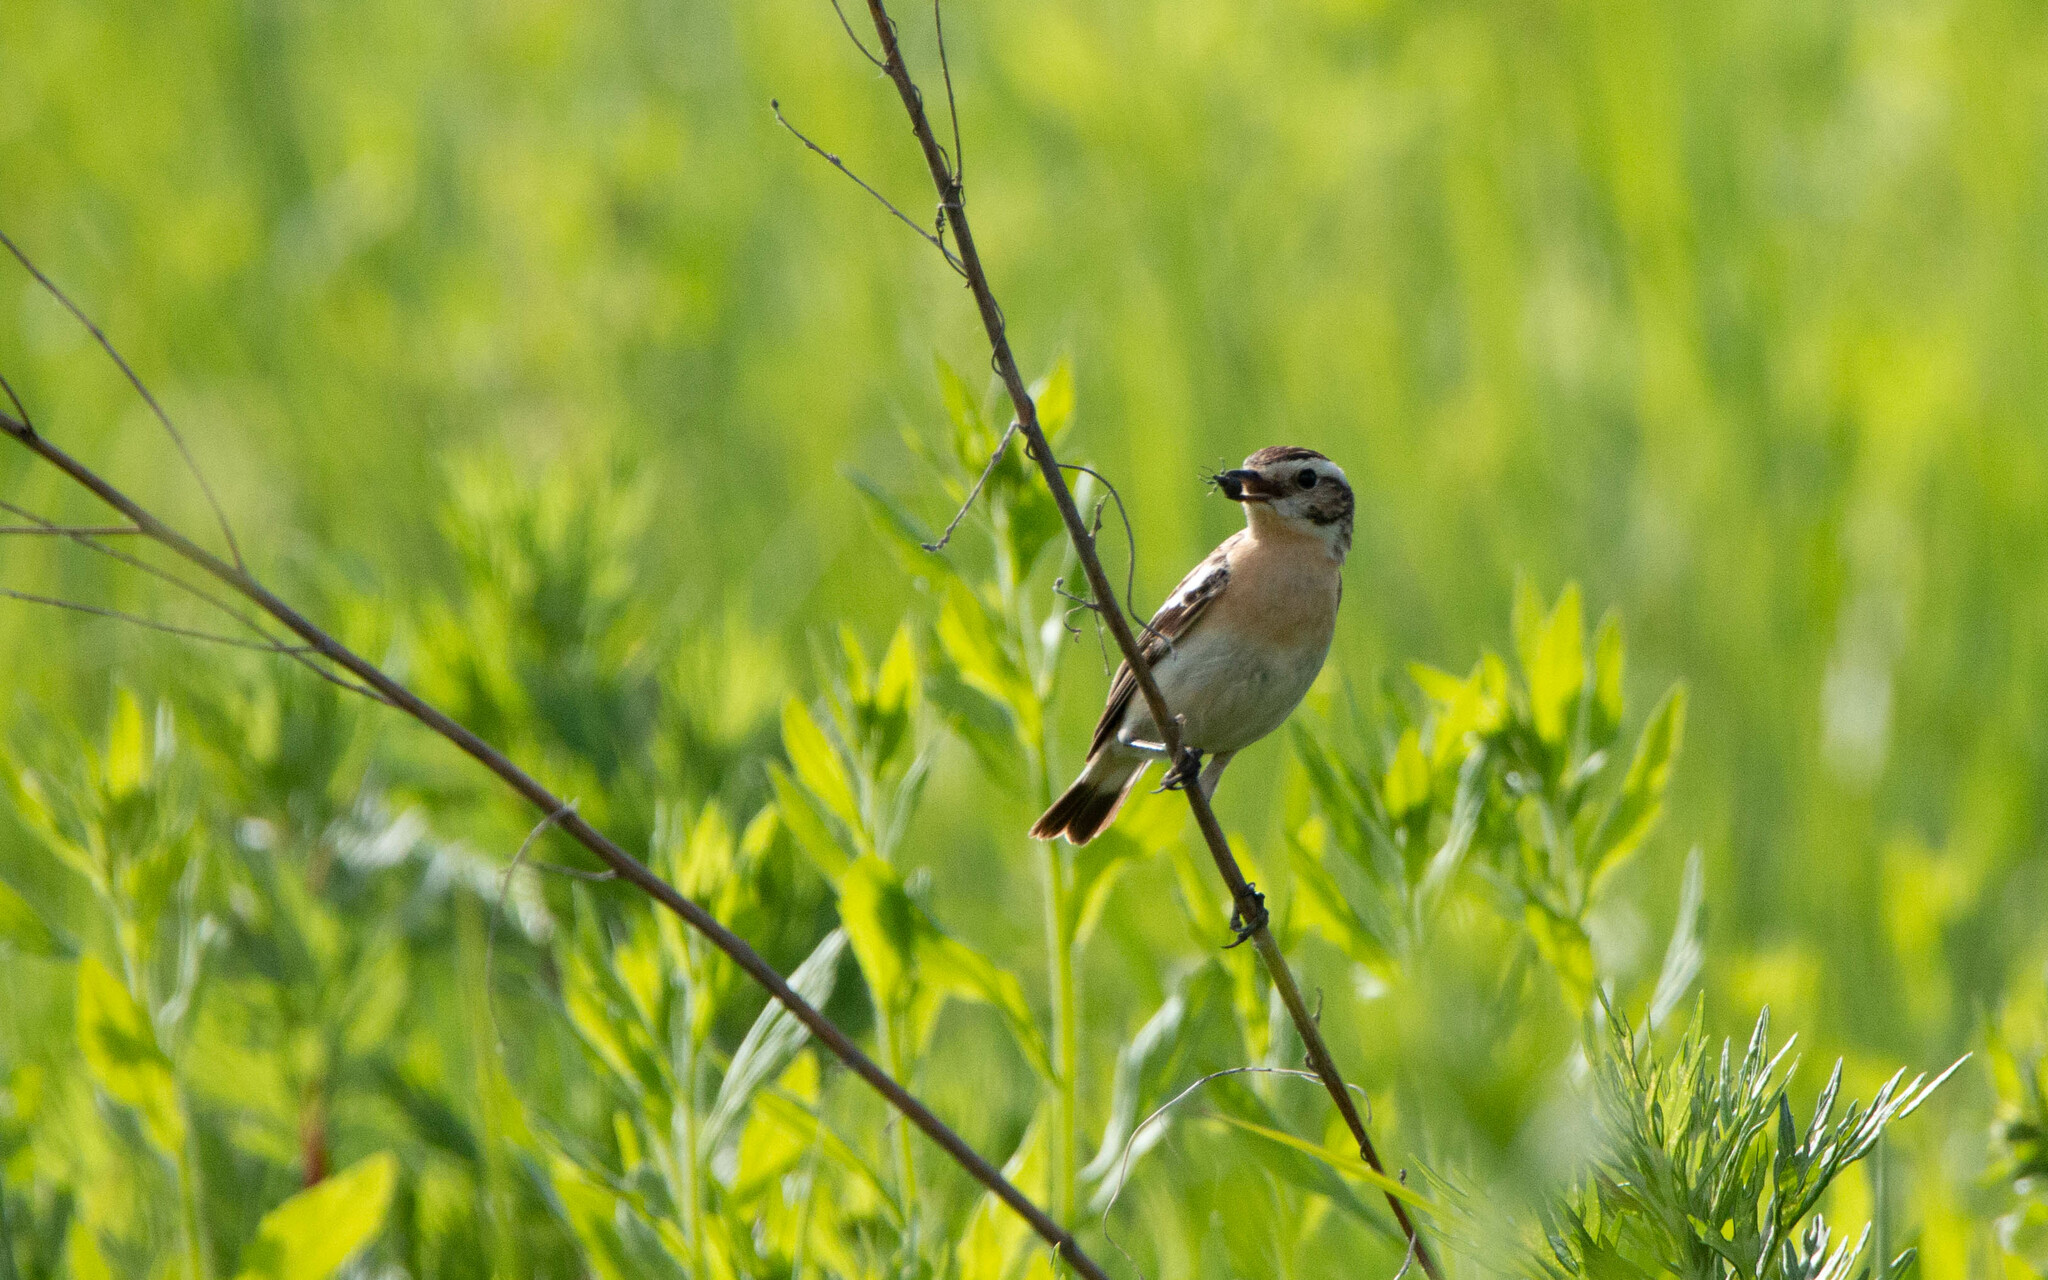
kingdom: Animalia
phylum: Chordata
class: Aves
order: Passeriformes
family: Muscicapidae
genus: Saxicola
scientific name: Saxicola rubetra
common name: Whinchat
